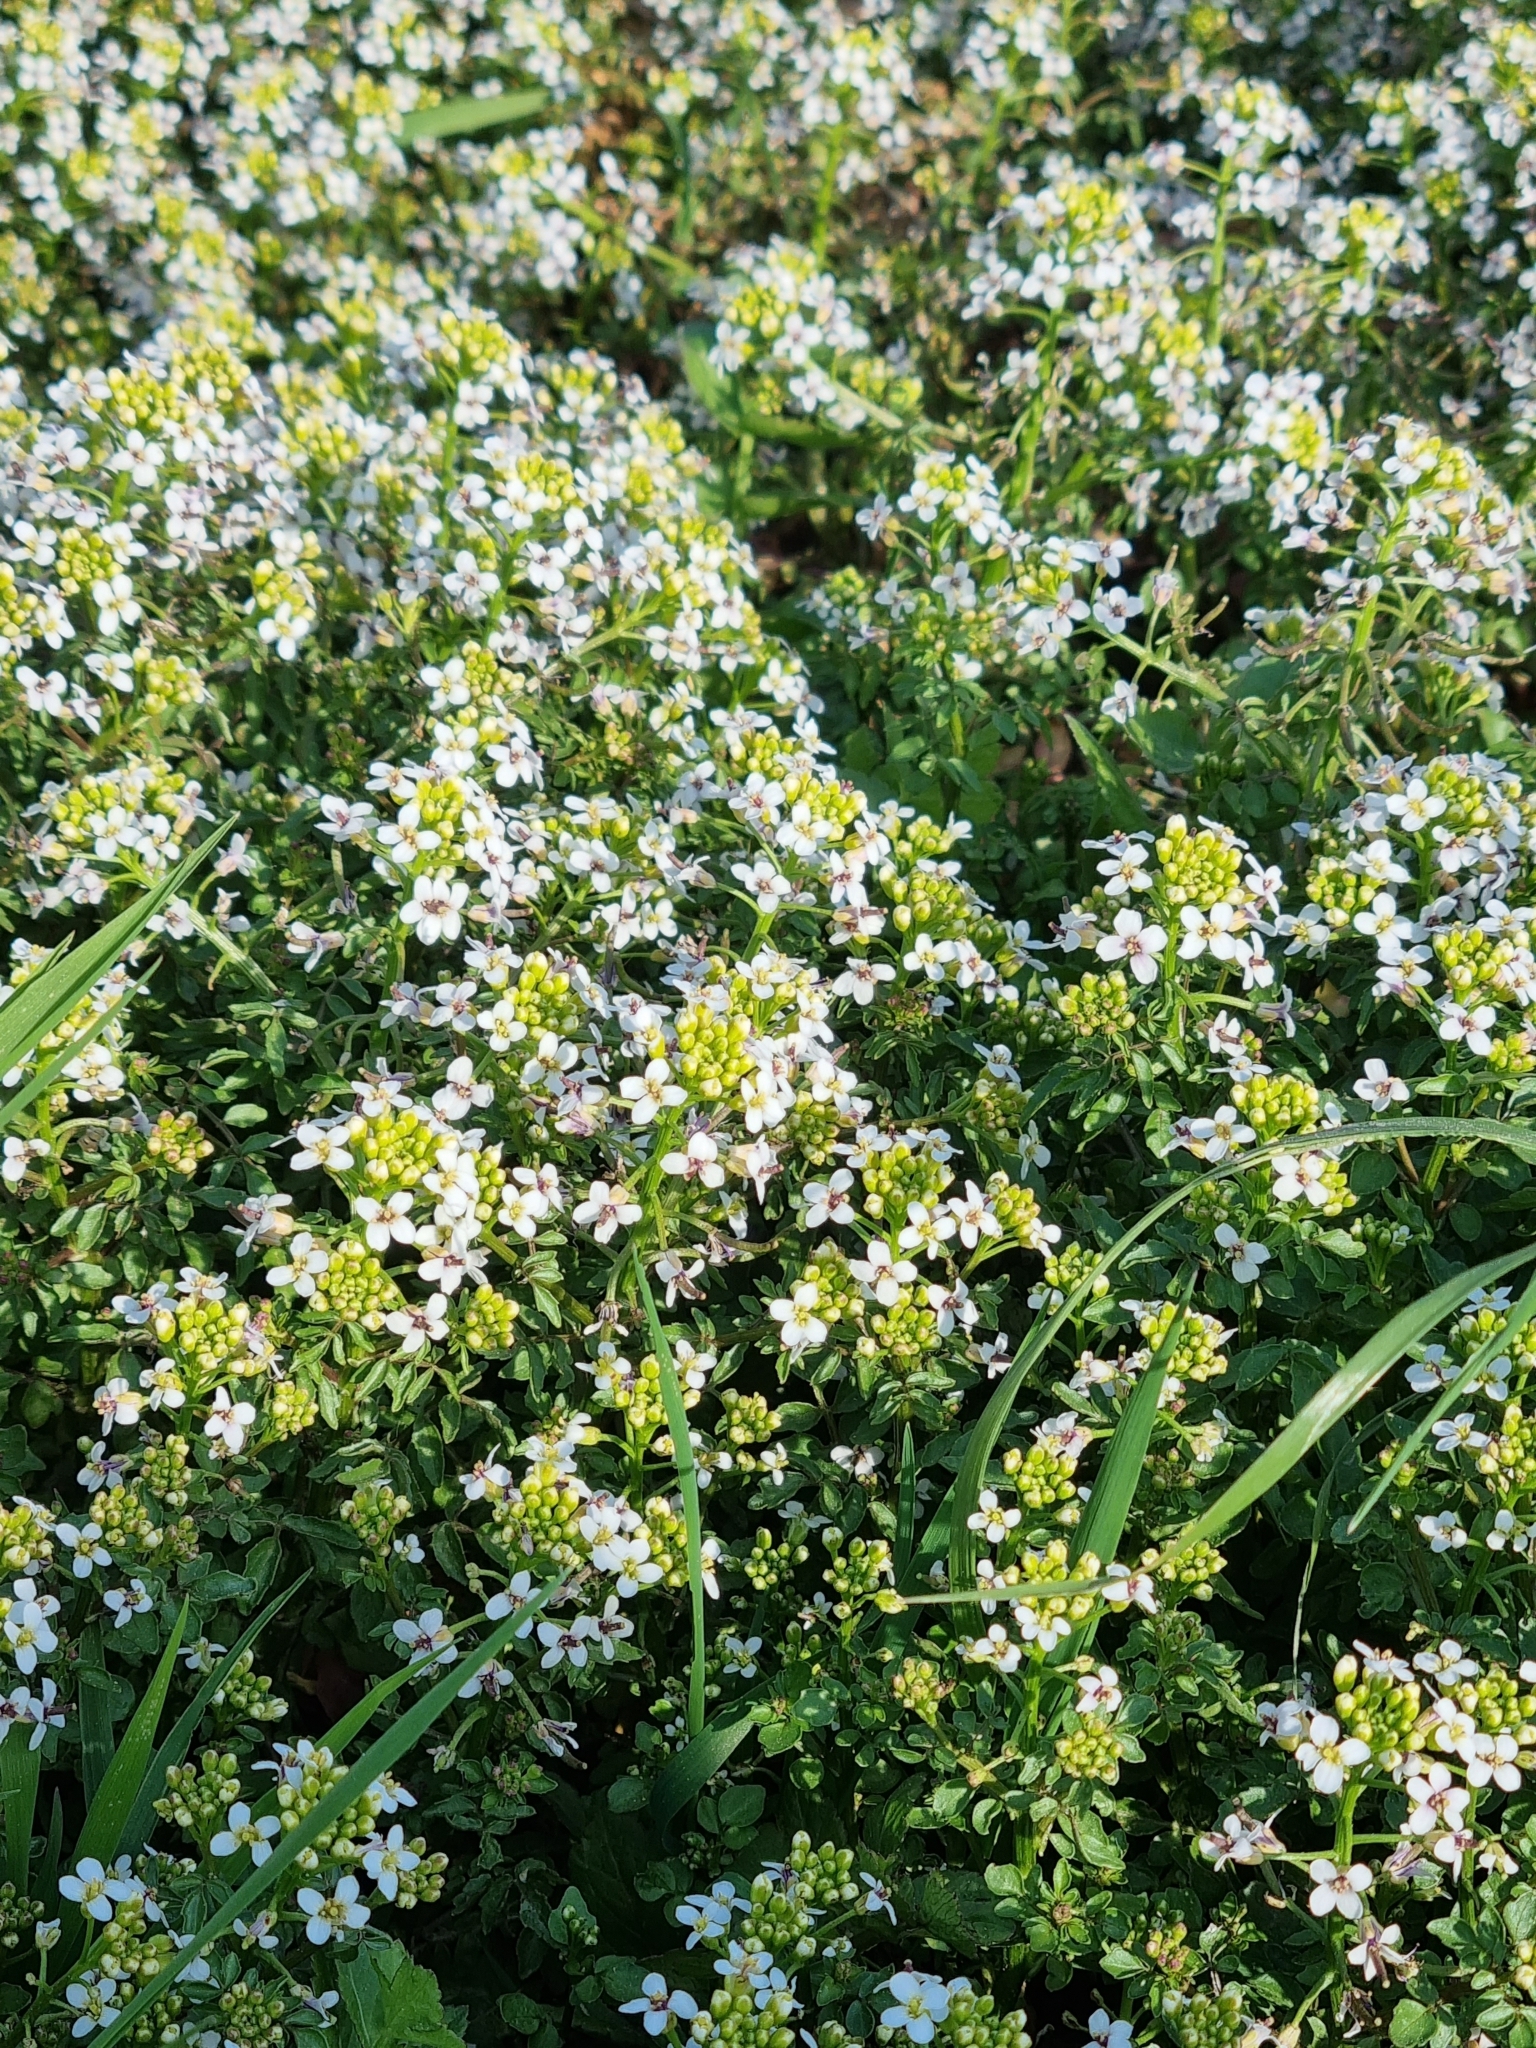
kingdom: Plantae
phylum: Tracheophyta
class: Magnoliopsida
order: Brassicales
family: Brassicaceae
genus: Nasturtium
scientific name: Nasturtium officinale
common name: Watercress
